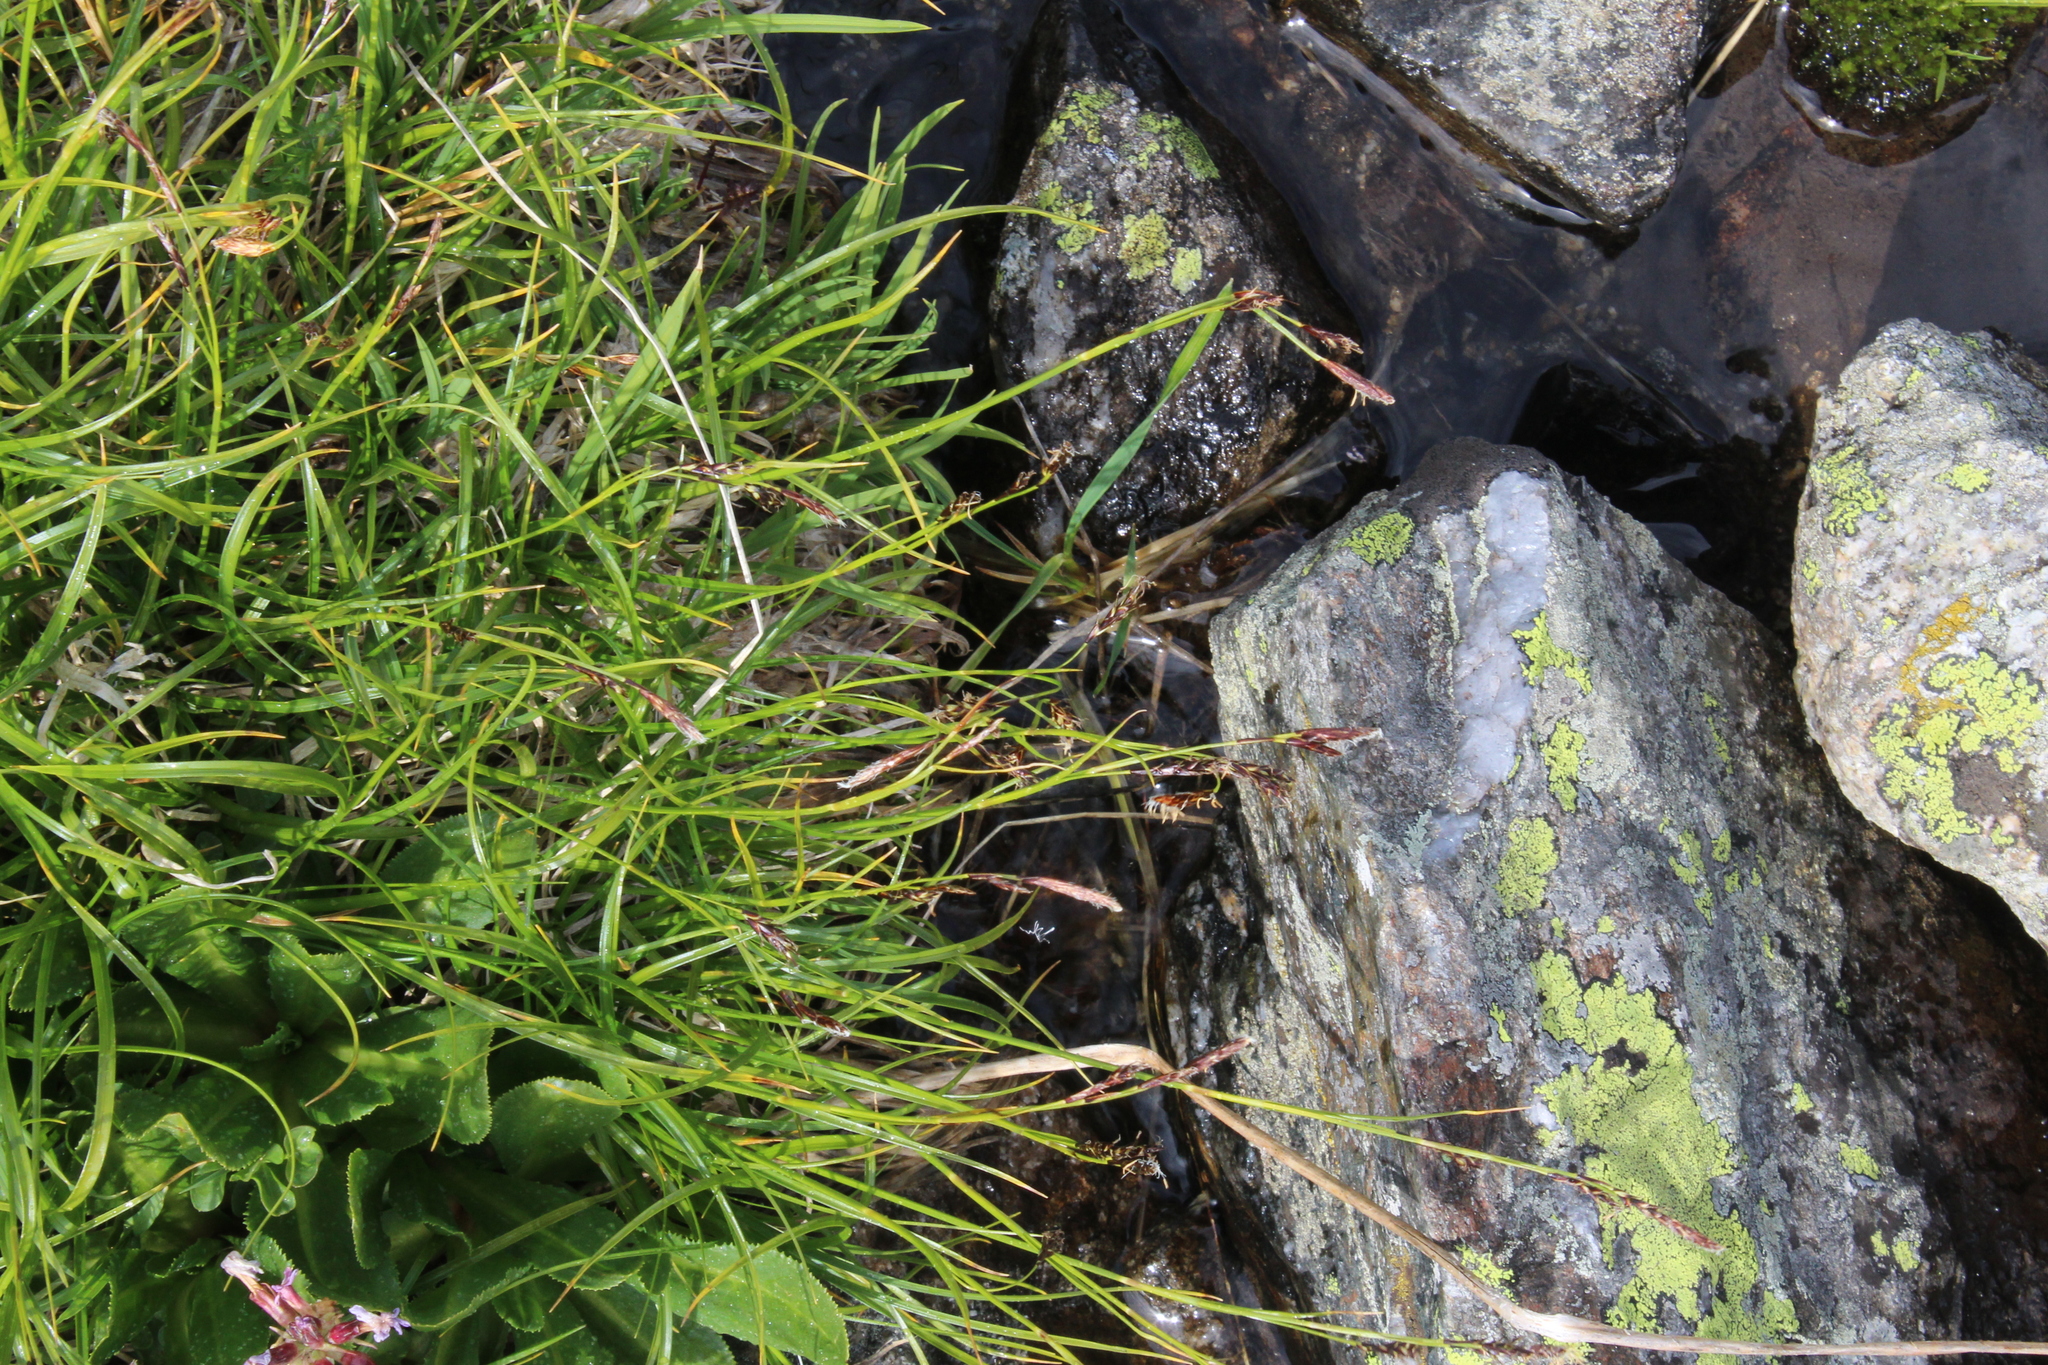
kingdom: Plantae
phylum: Tracheophyta
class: Liliopsida
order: Poales
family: Cyperaceae
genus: Carex
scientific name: Carex tristis
